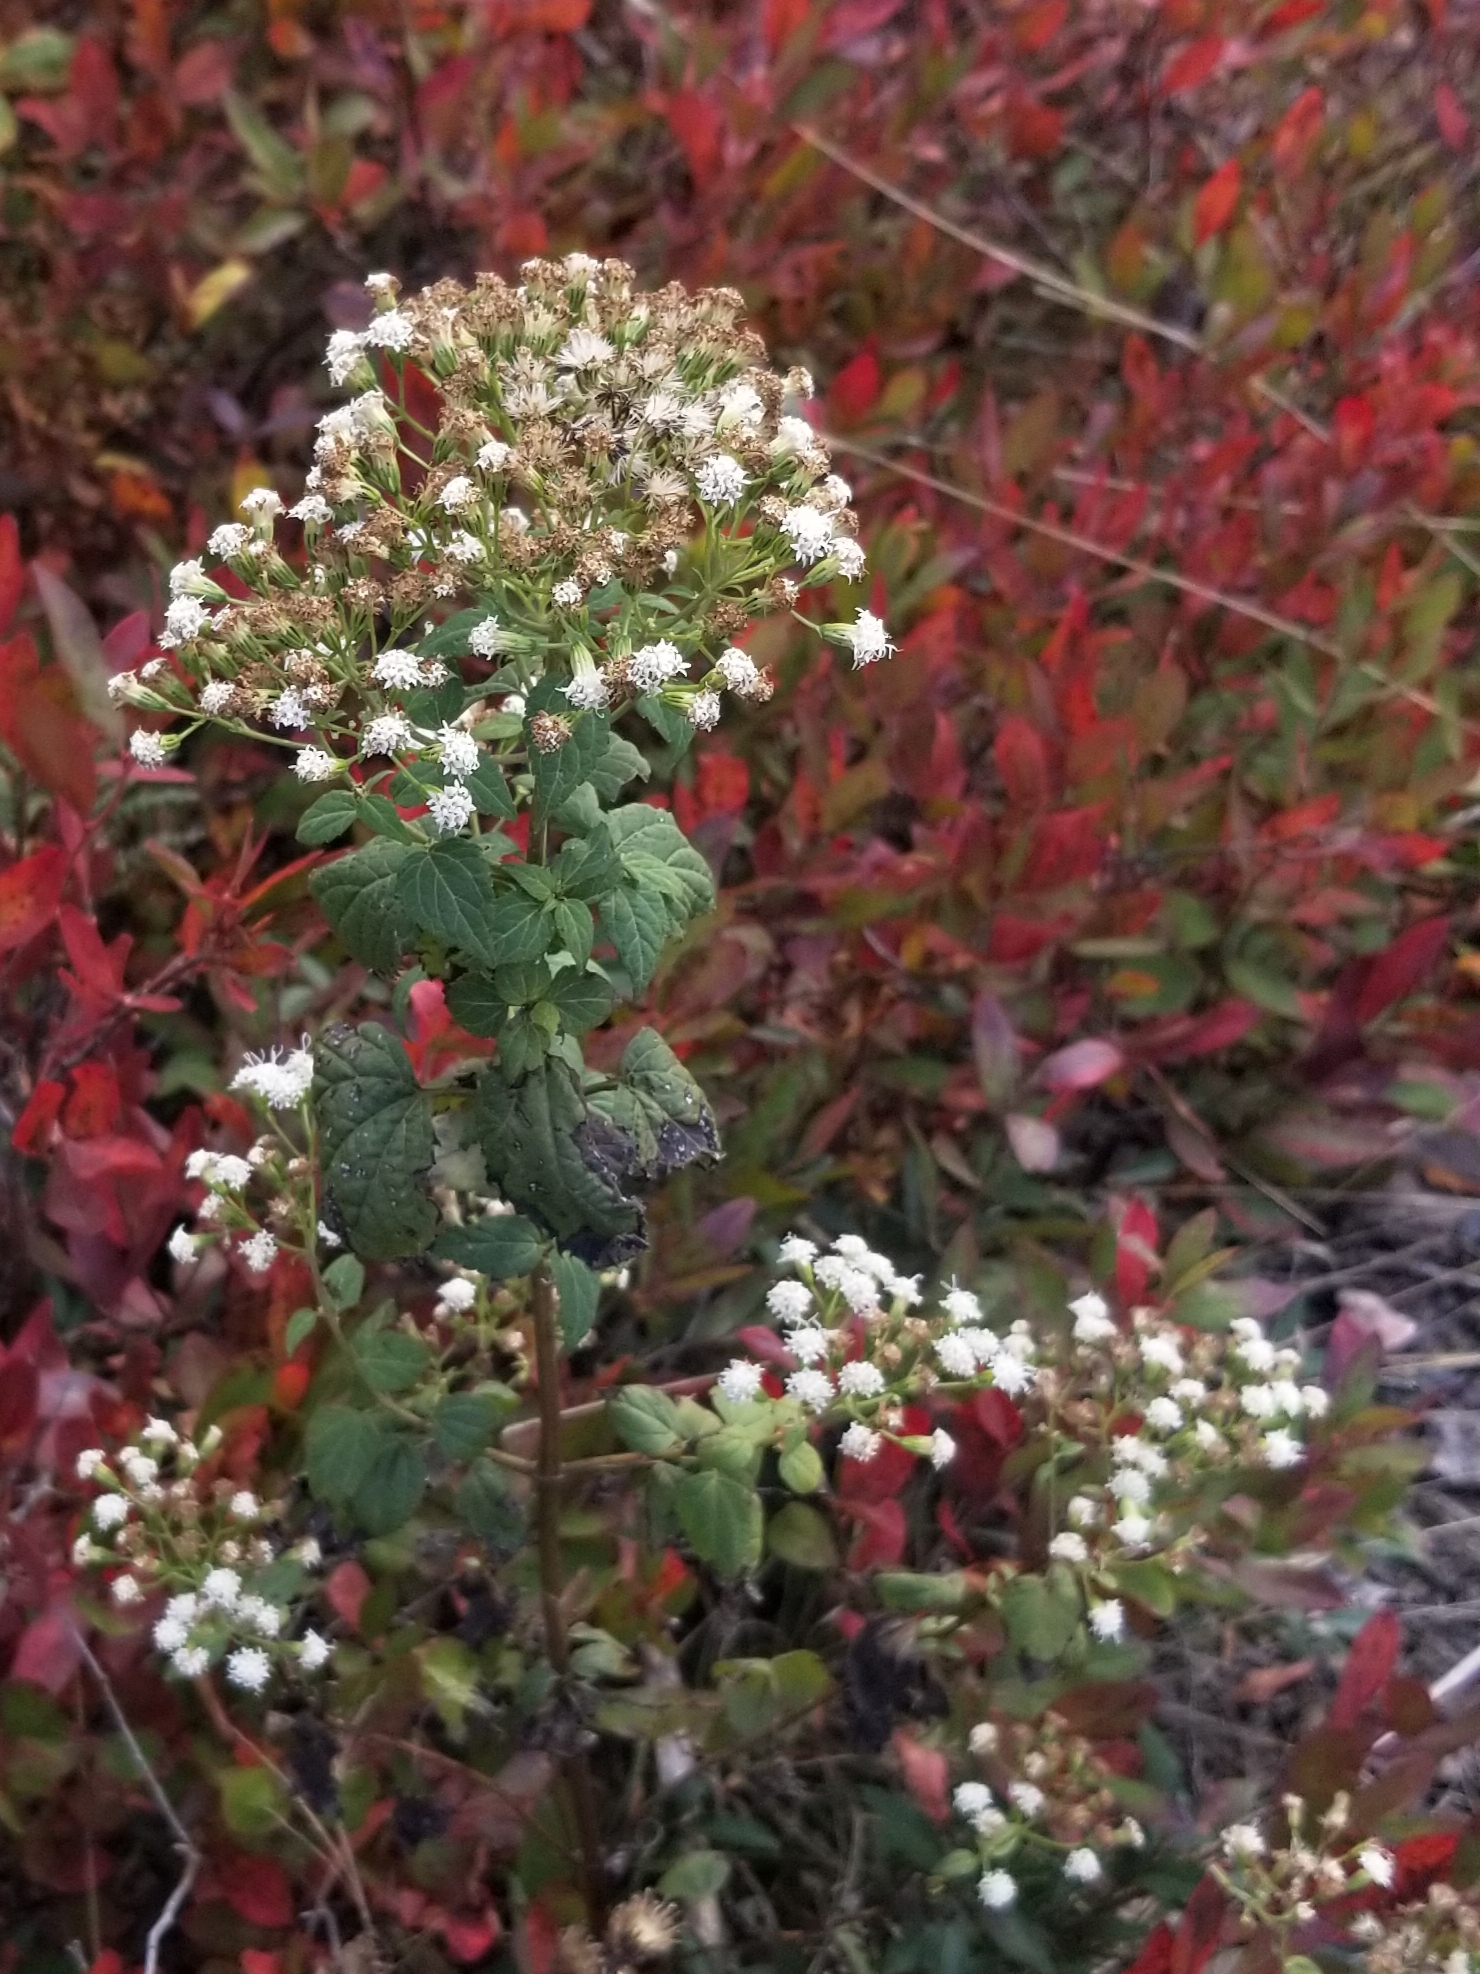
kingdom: Plantae
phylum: Tracheophyta
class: Magnoliopsida
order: Asterales
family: Asteraceae
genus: Ageratina
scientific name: Ageratina altissima
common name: White snakeroot
